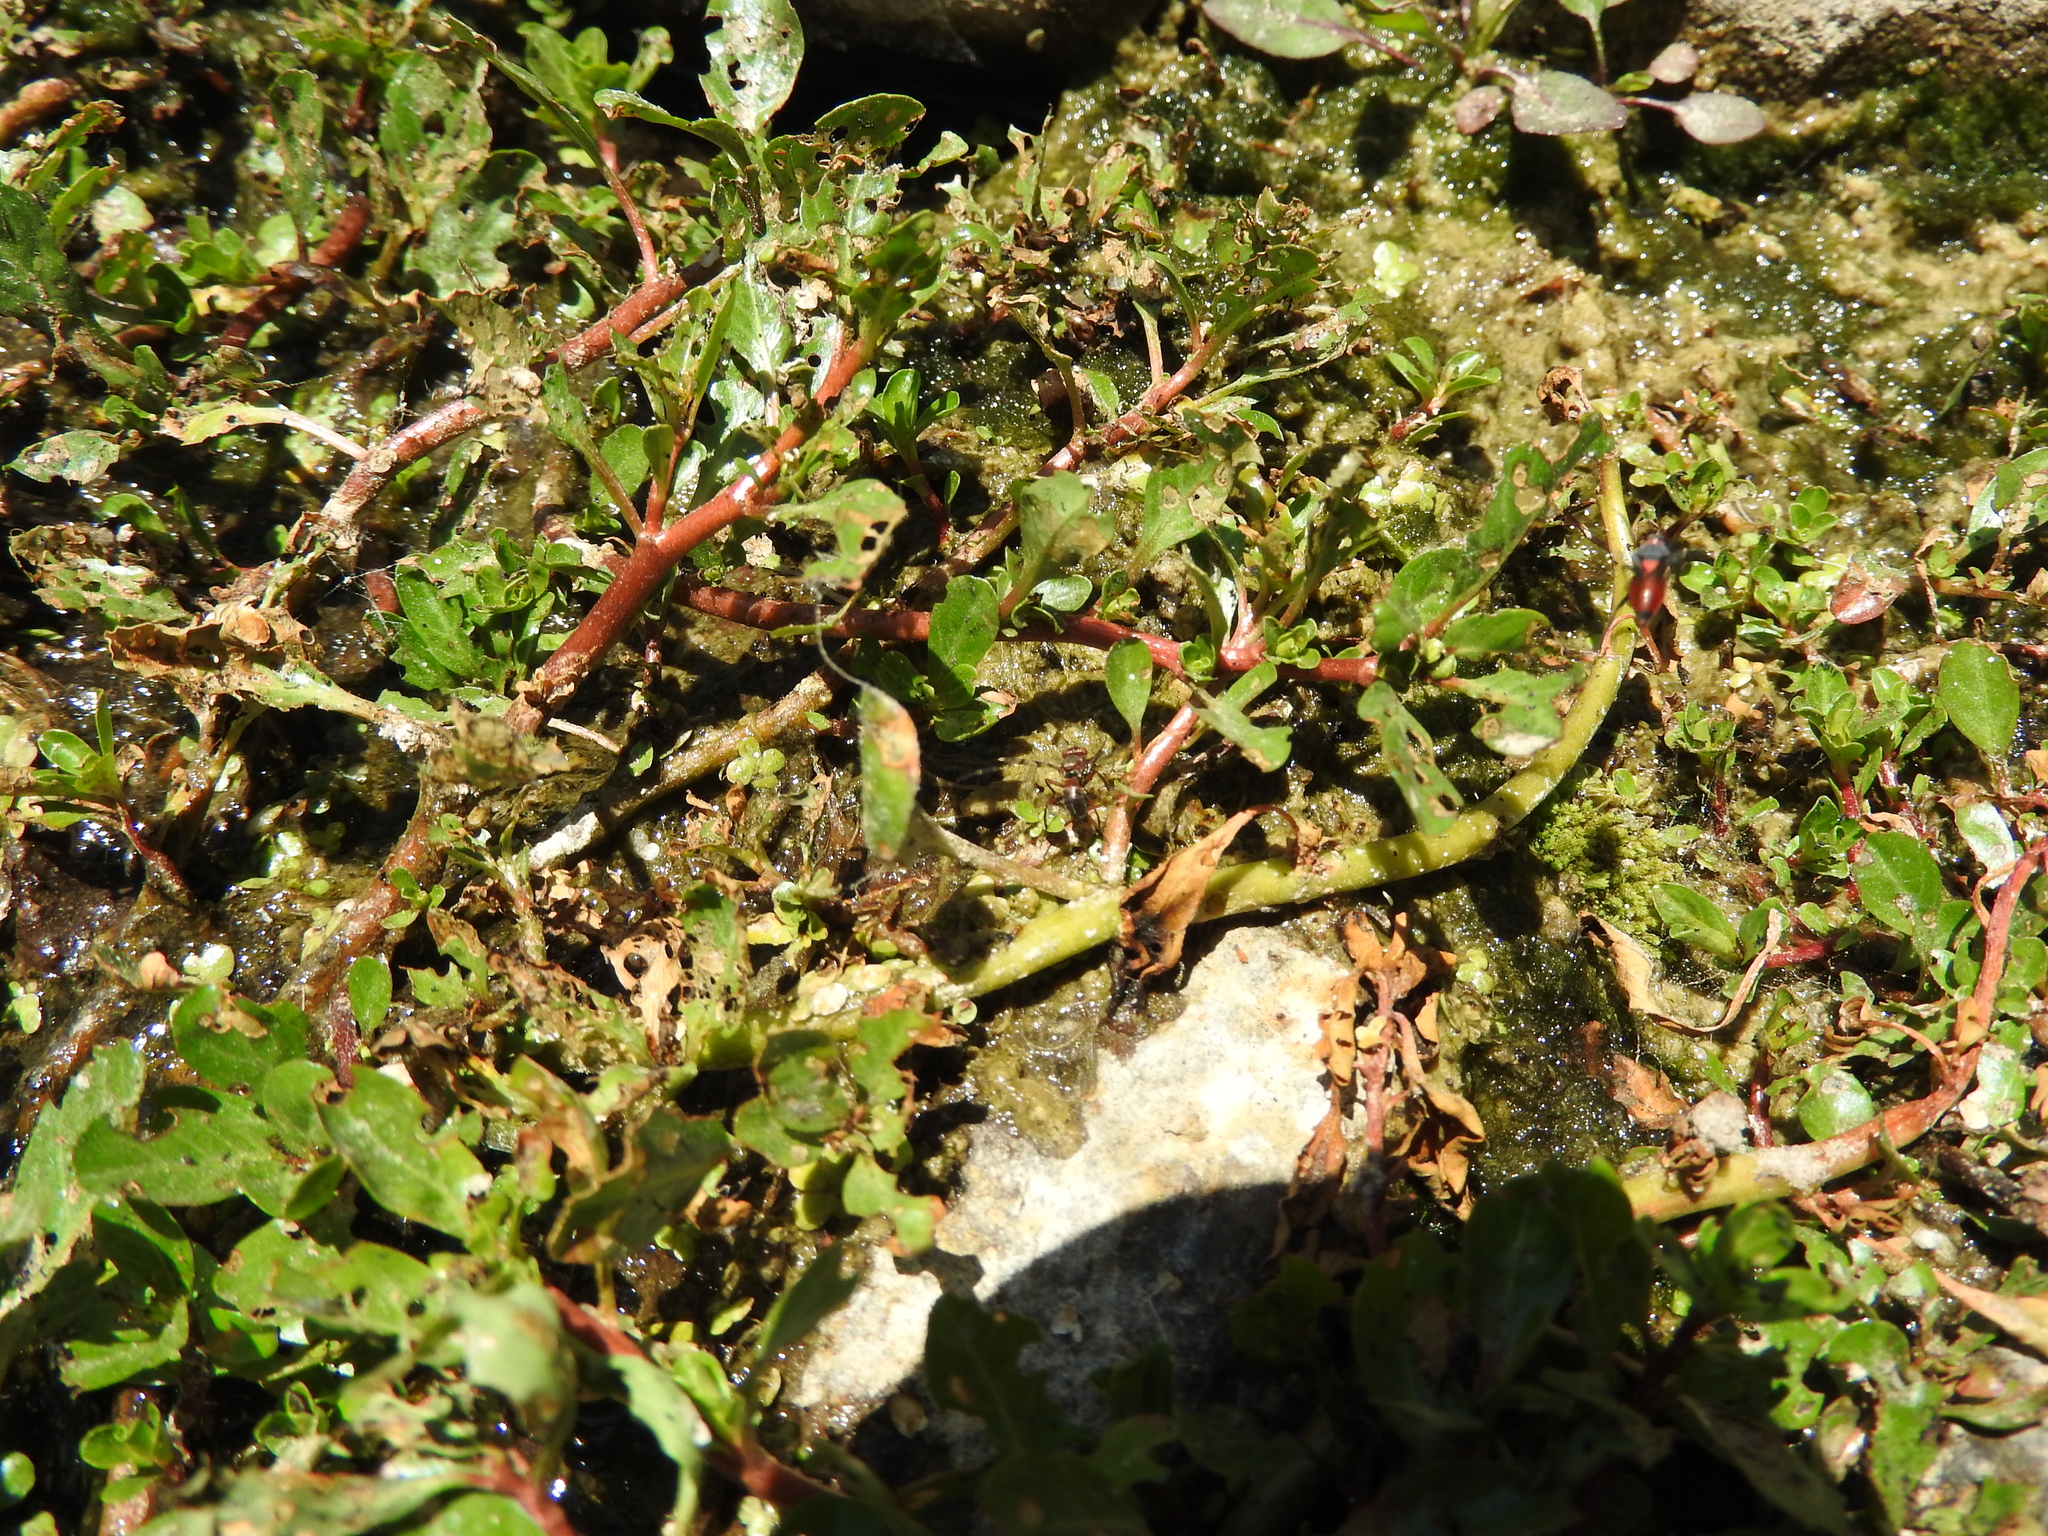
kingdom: Plantae
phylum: Tracheophyta
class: Magnoliopsida
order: Myrtales
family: Onagraceae
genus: Ludwigia
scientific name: Ludwigia peploides
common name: Floating primrose-willow
